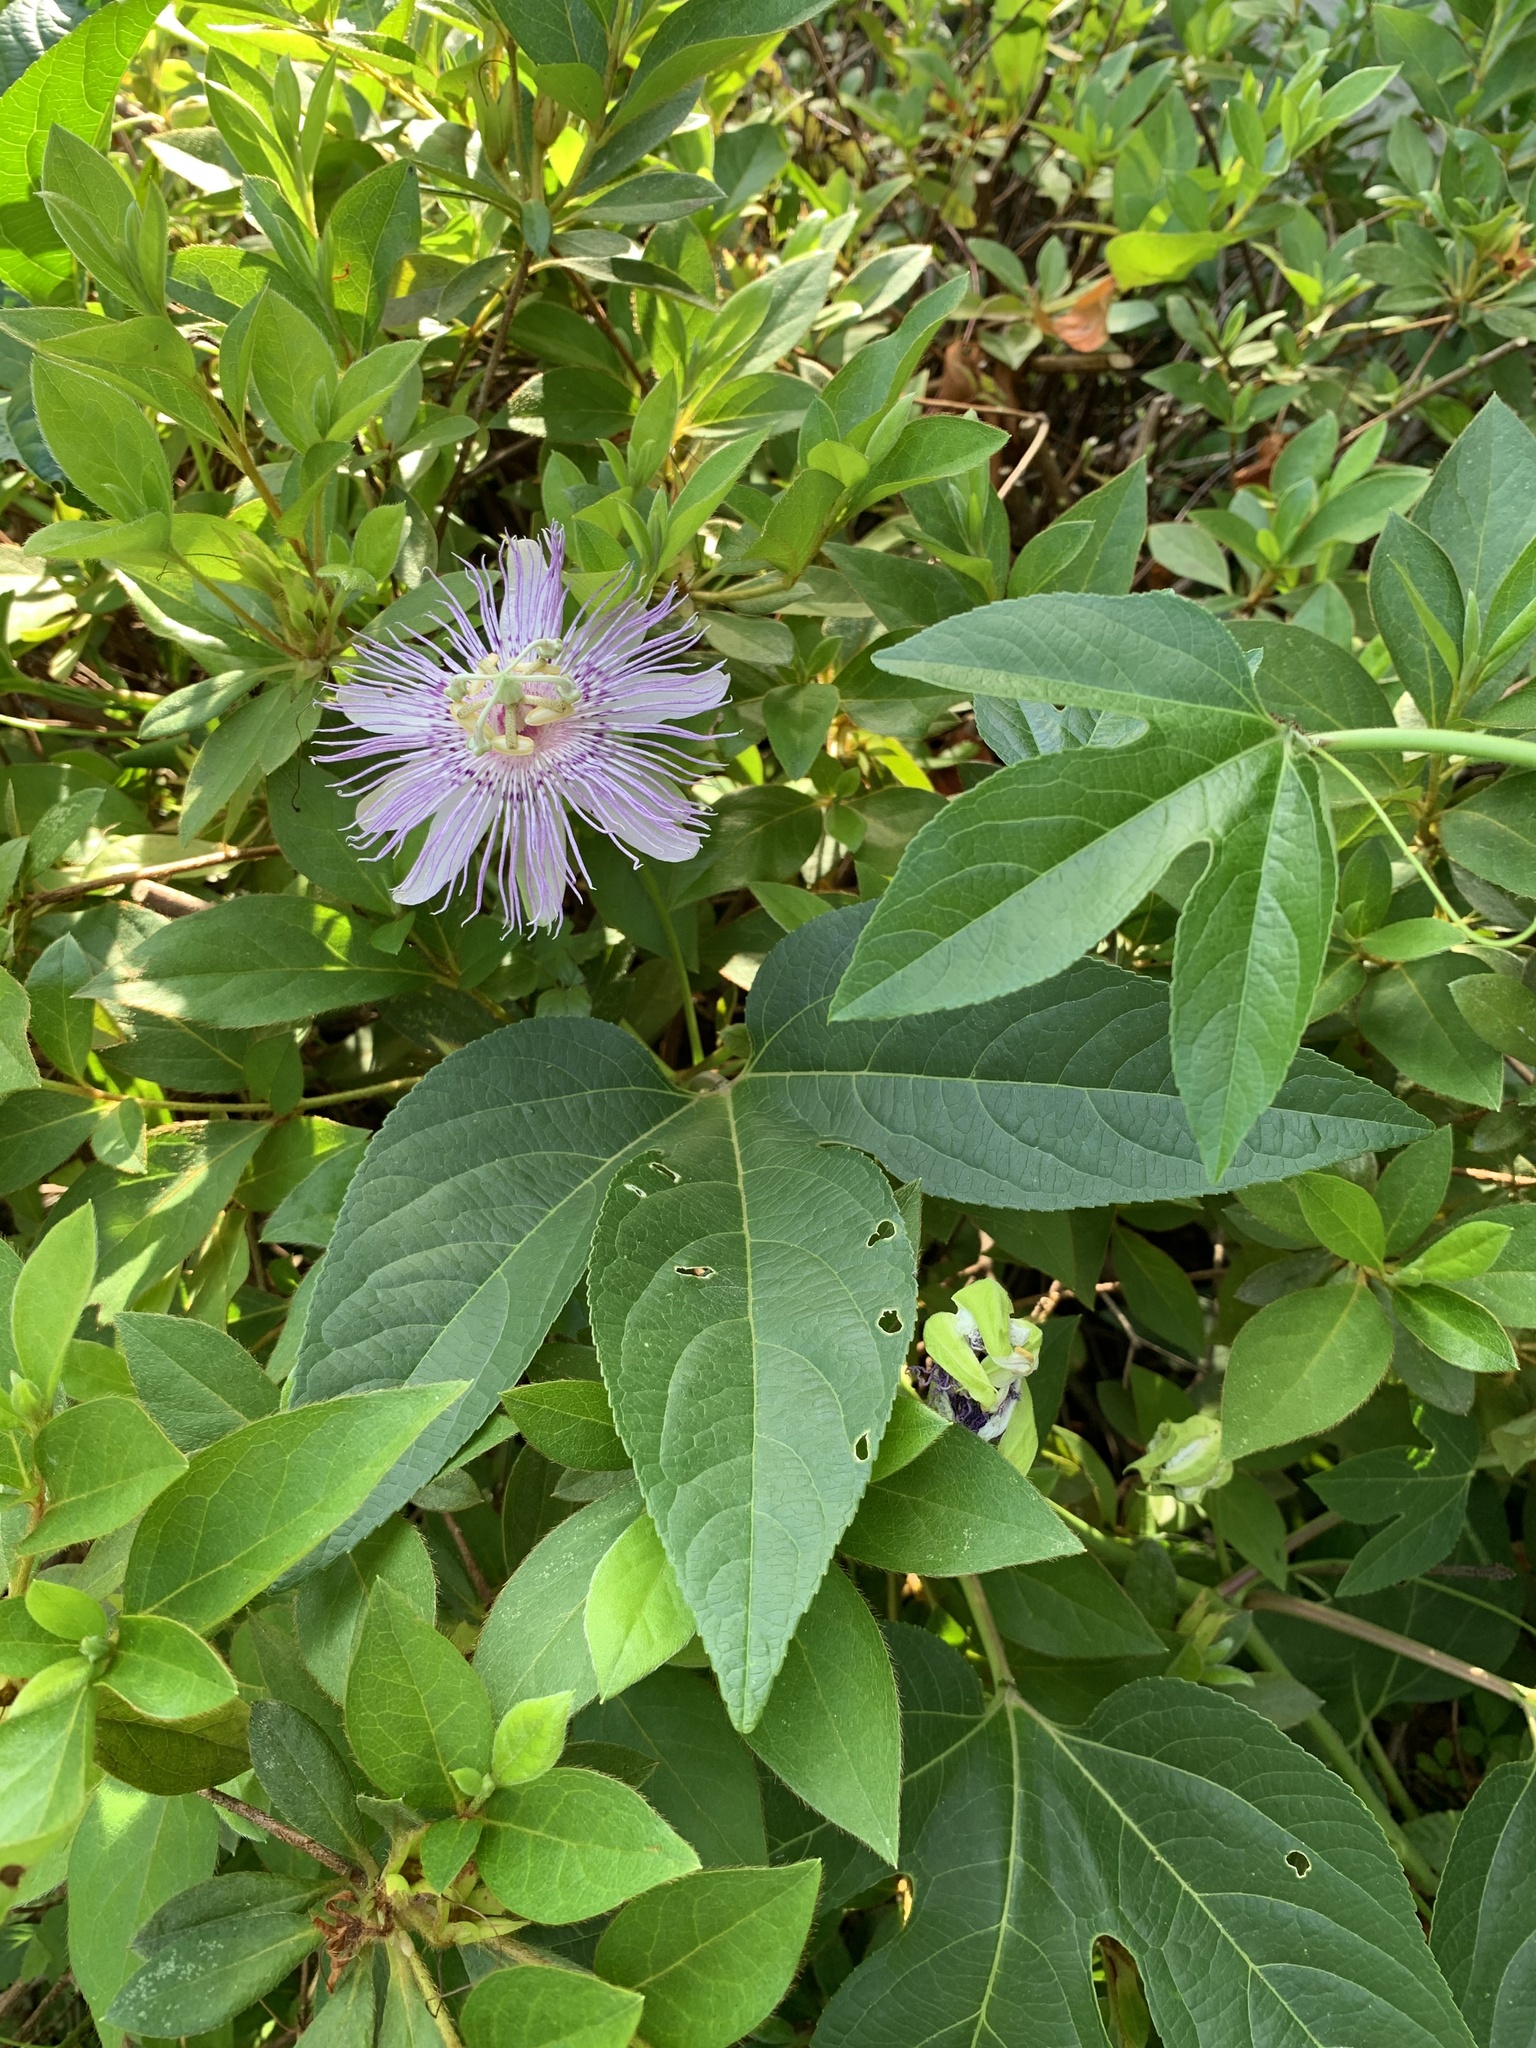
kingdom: Plantae
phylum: Tracheophyta
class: Magnoliopsida
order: Malpighiales
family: Passifloraceae
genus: Passiflora
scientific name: Passiflora incarnata
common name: Apricot-vine
